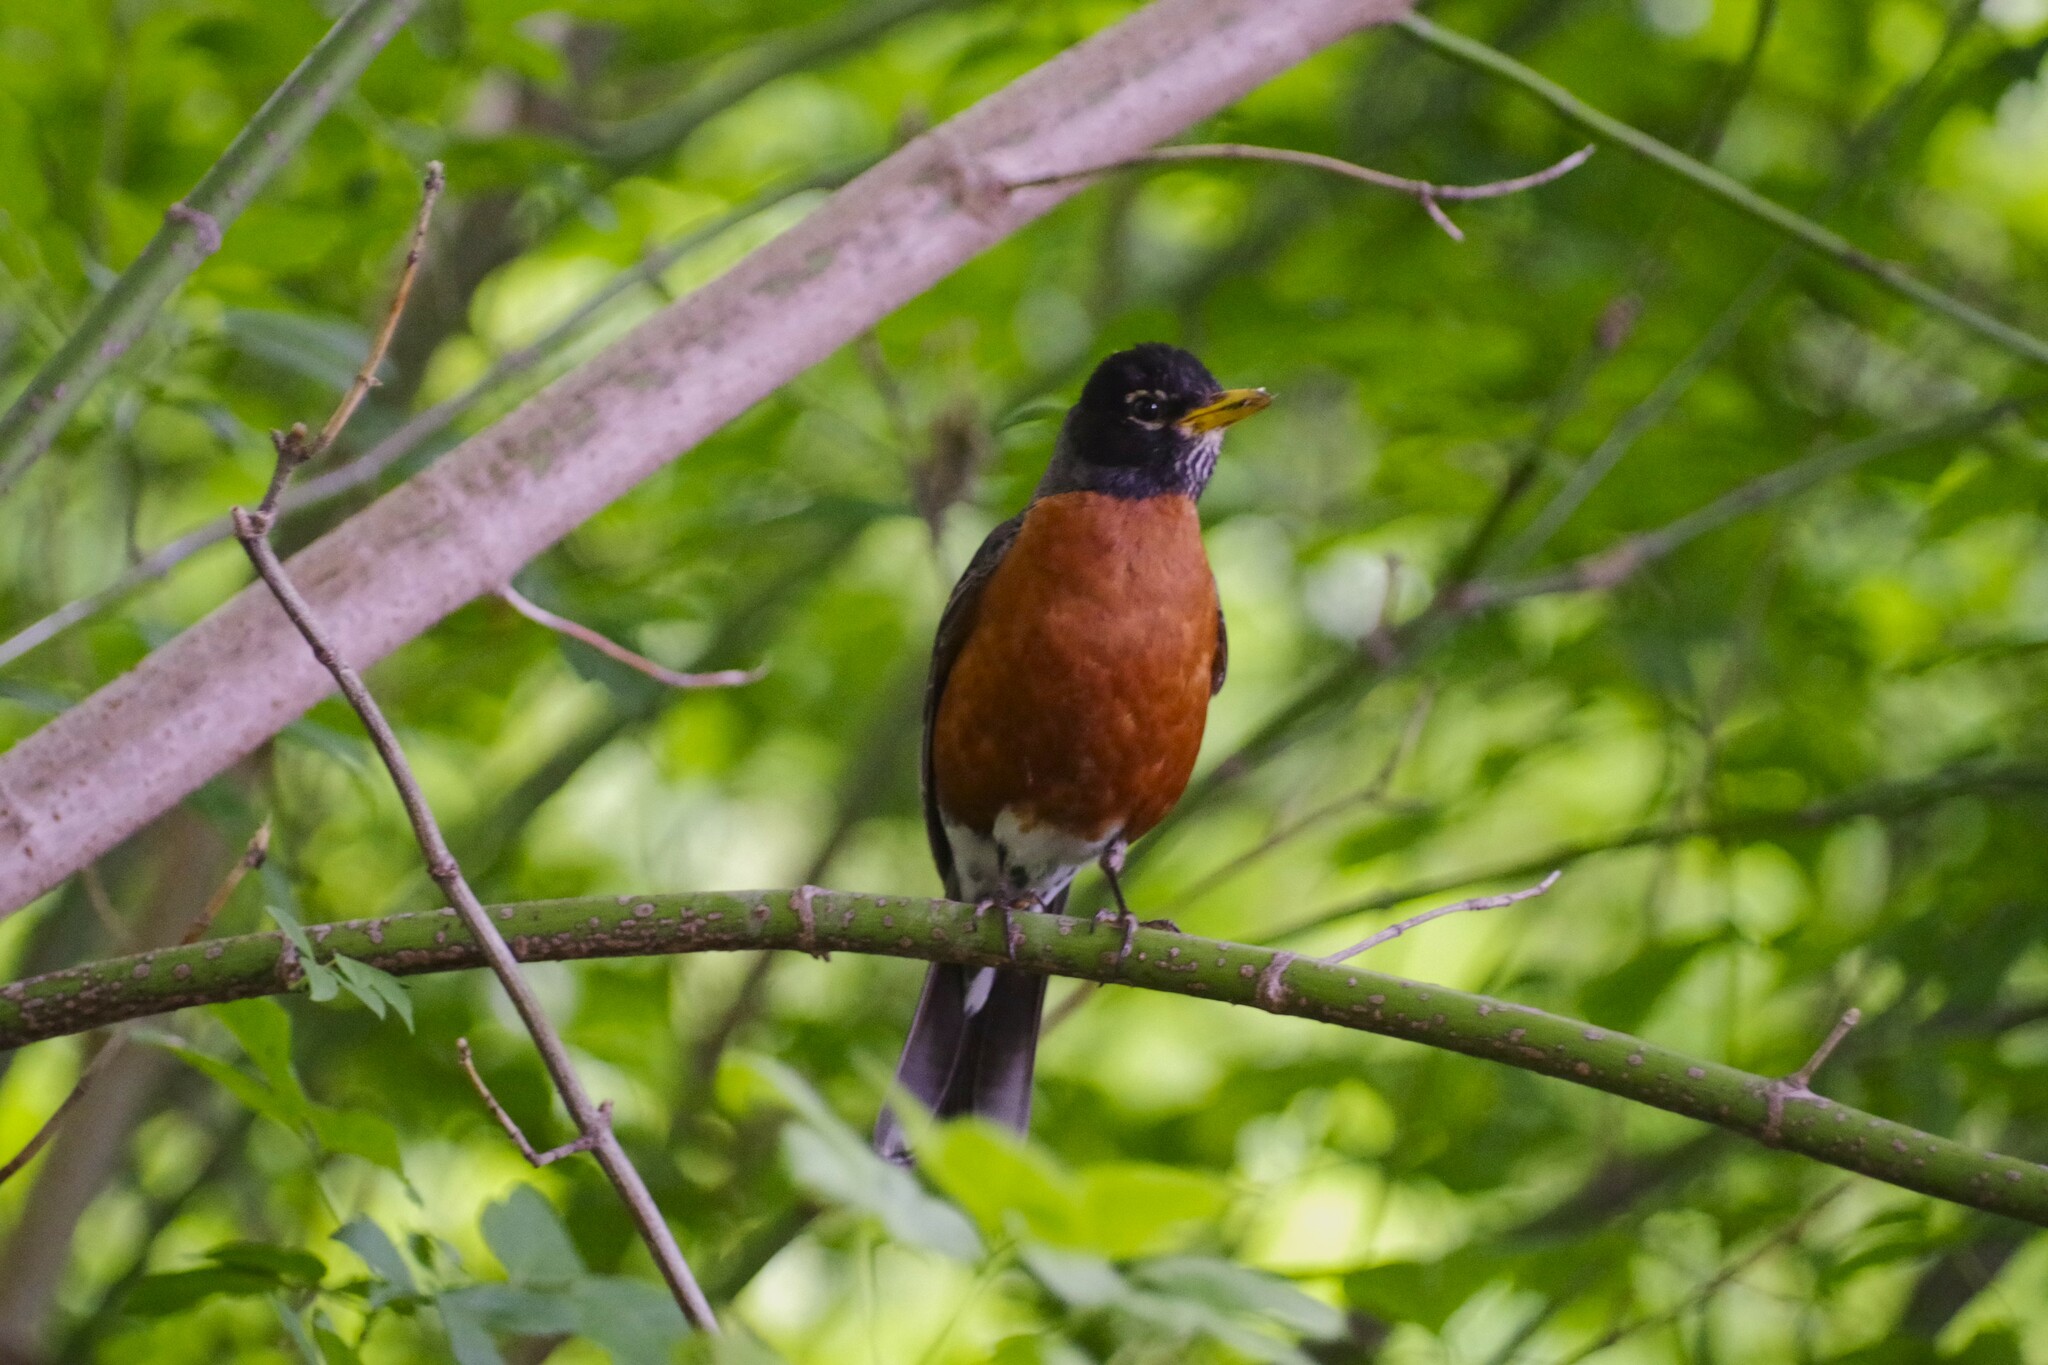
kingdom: Animalia
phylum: Chordata
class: Aves
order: Passeriformes
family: Turdidae
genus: Turdus
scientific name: Turdus migratorius
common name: American robin
